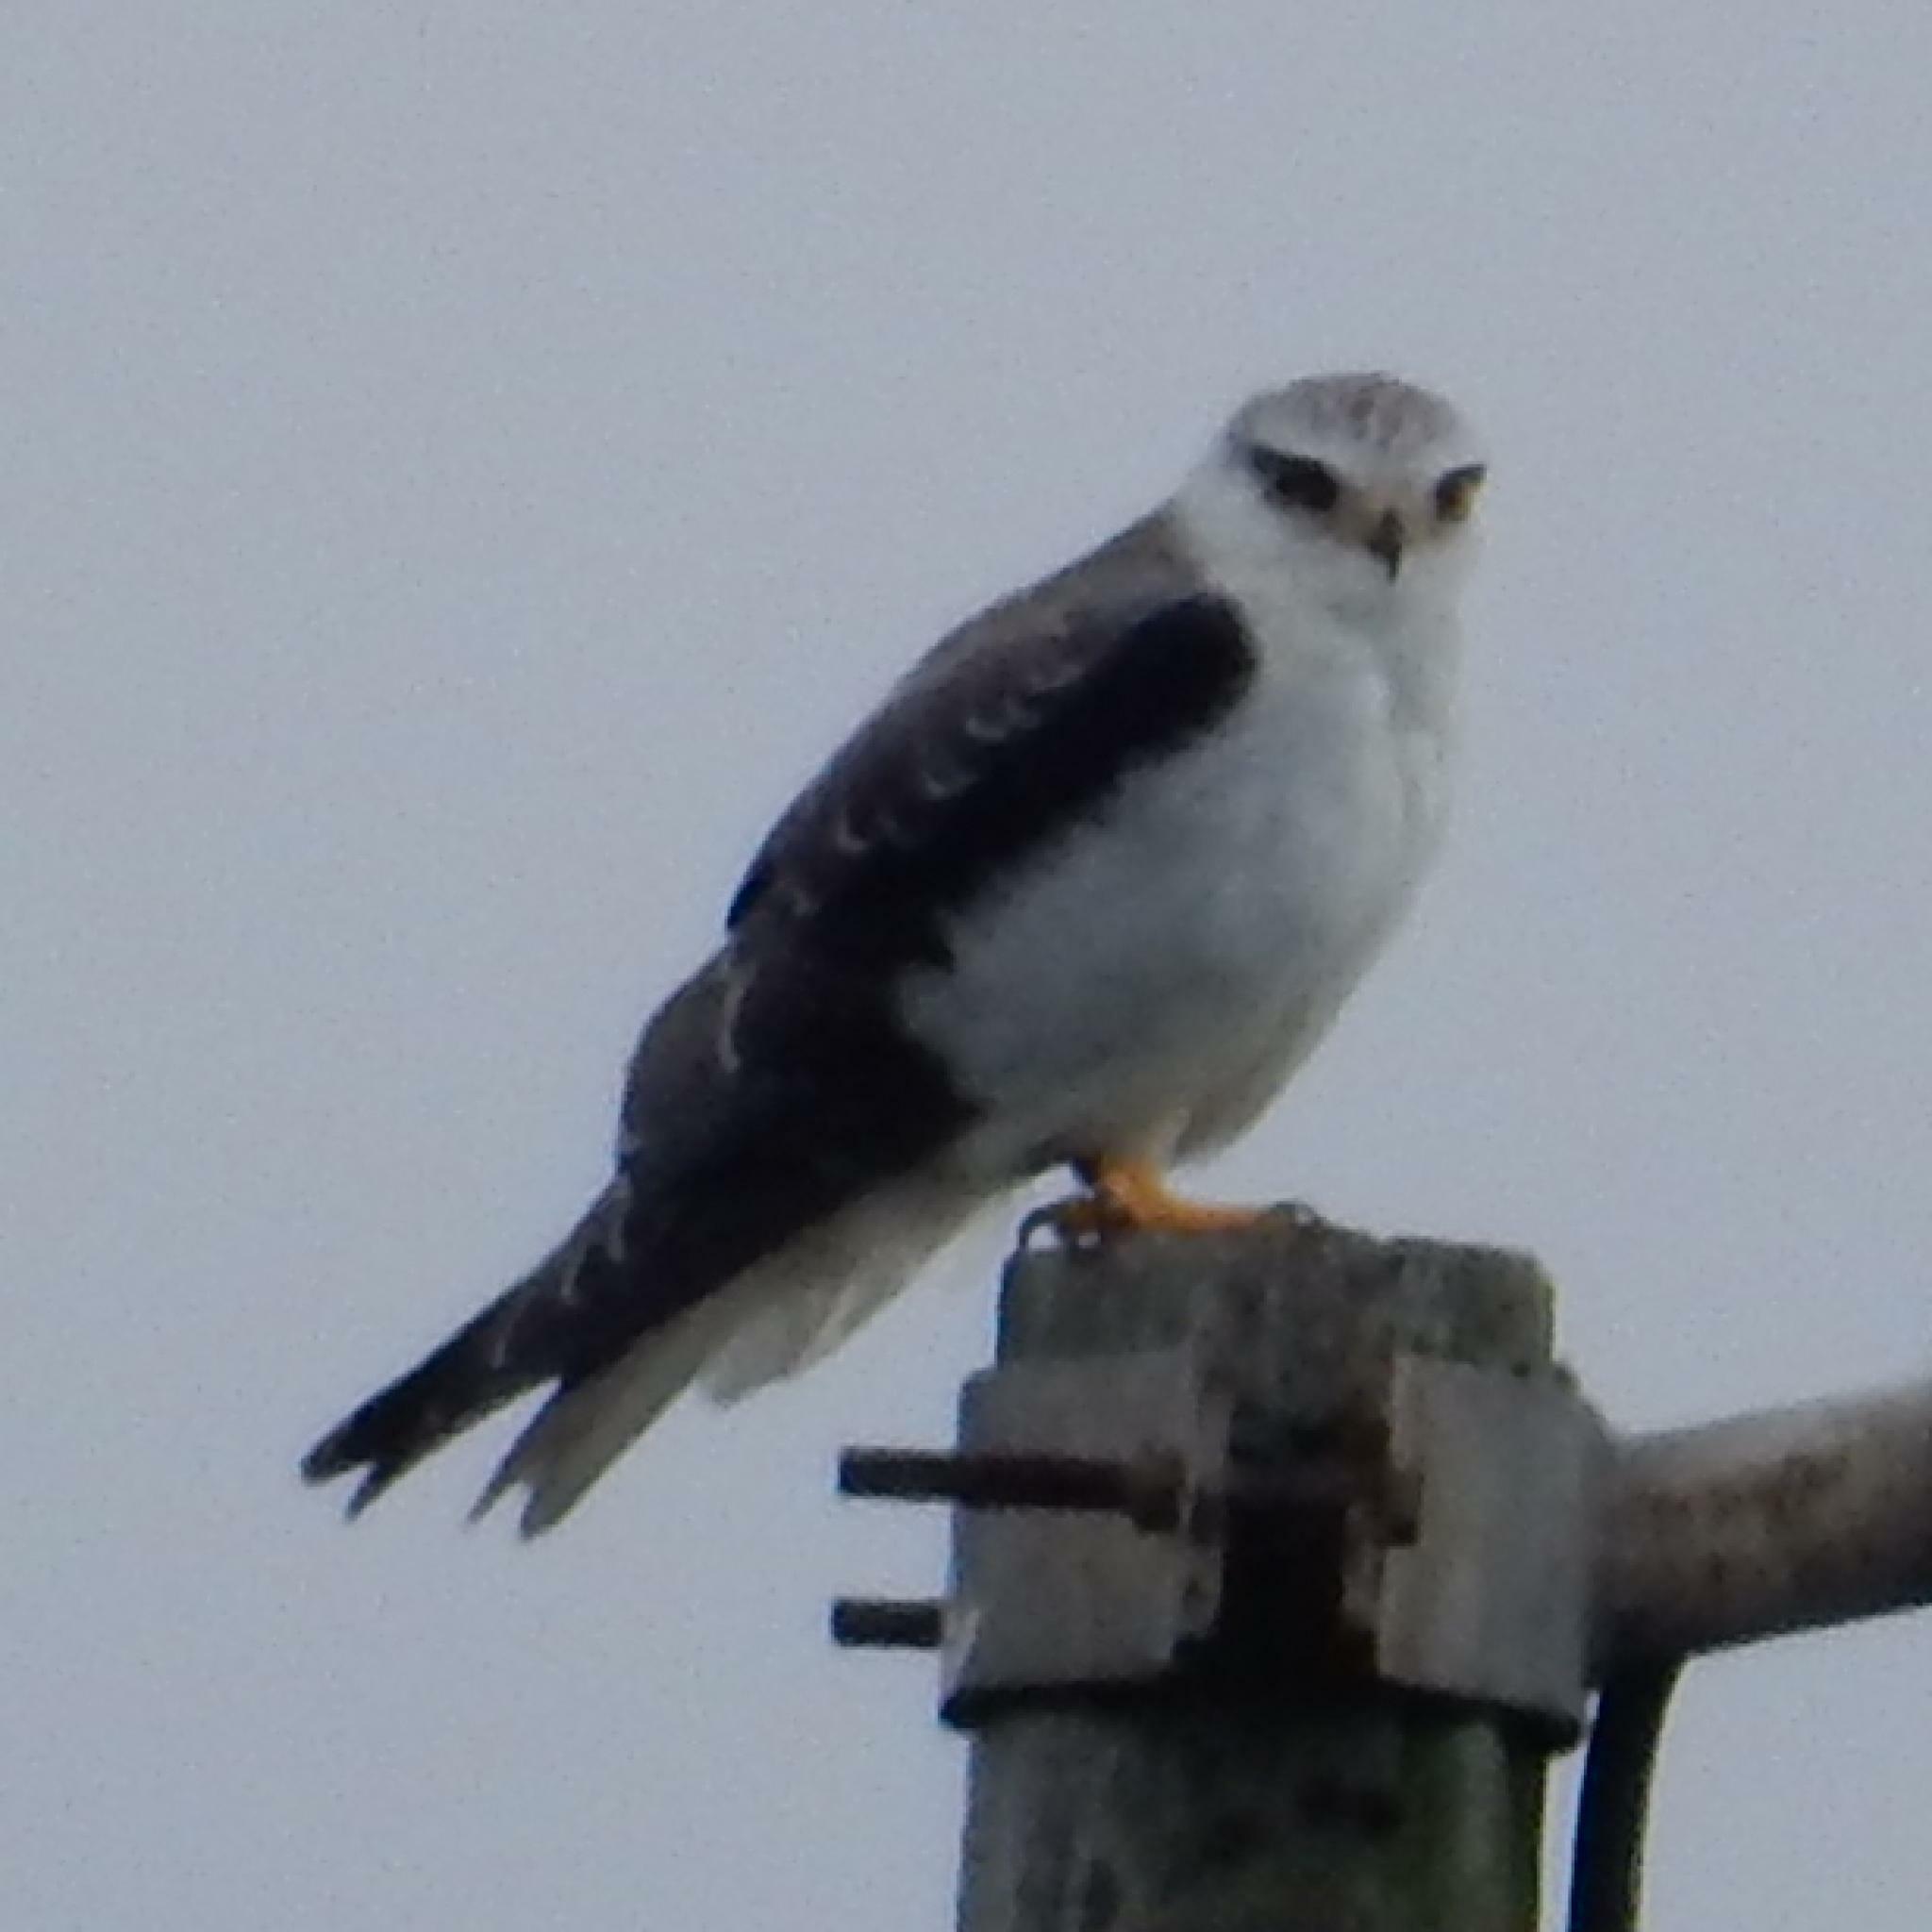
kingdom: Animalia
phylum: Chordata
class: Aves
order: Accipitriformes
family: Accipitridae
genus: Elanus
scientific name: Elanus caeruleus
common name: Black-winged kite
